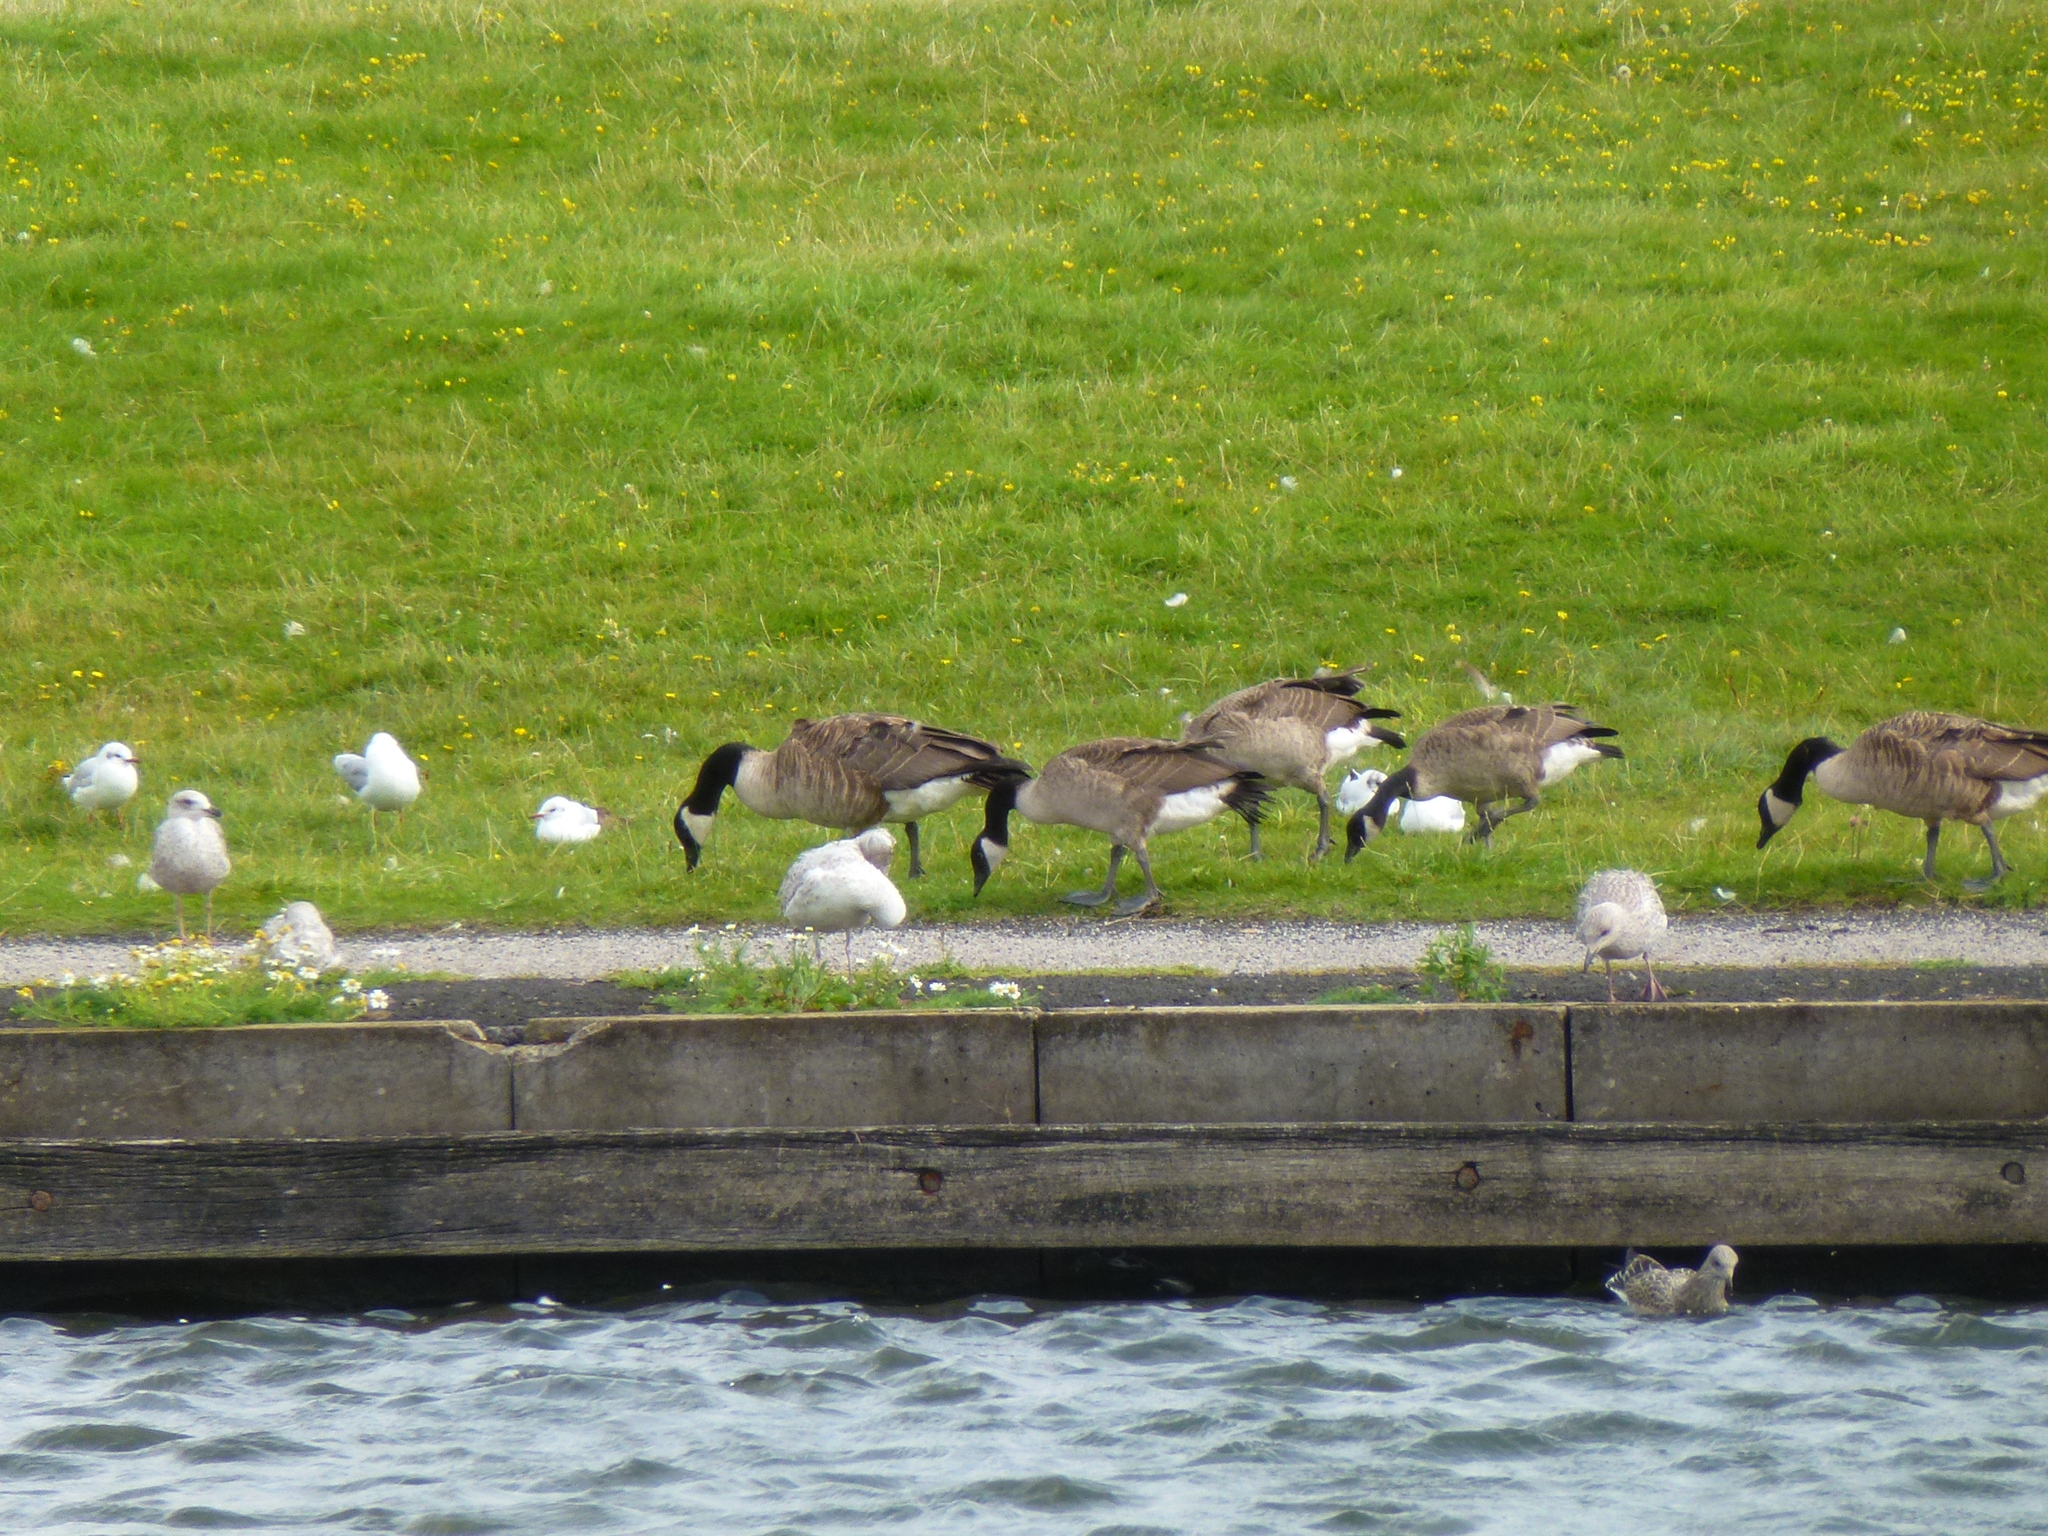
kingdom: Animalia
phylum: Chordata
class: Aves
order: Anseriformes
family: Anatidae
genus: Branta
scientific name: Branta canadensis
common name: Canada goose
